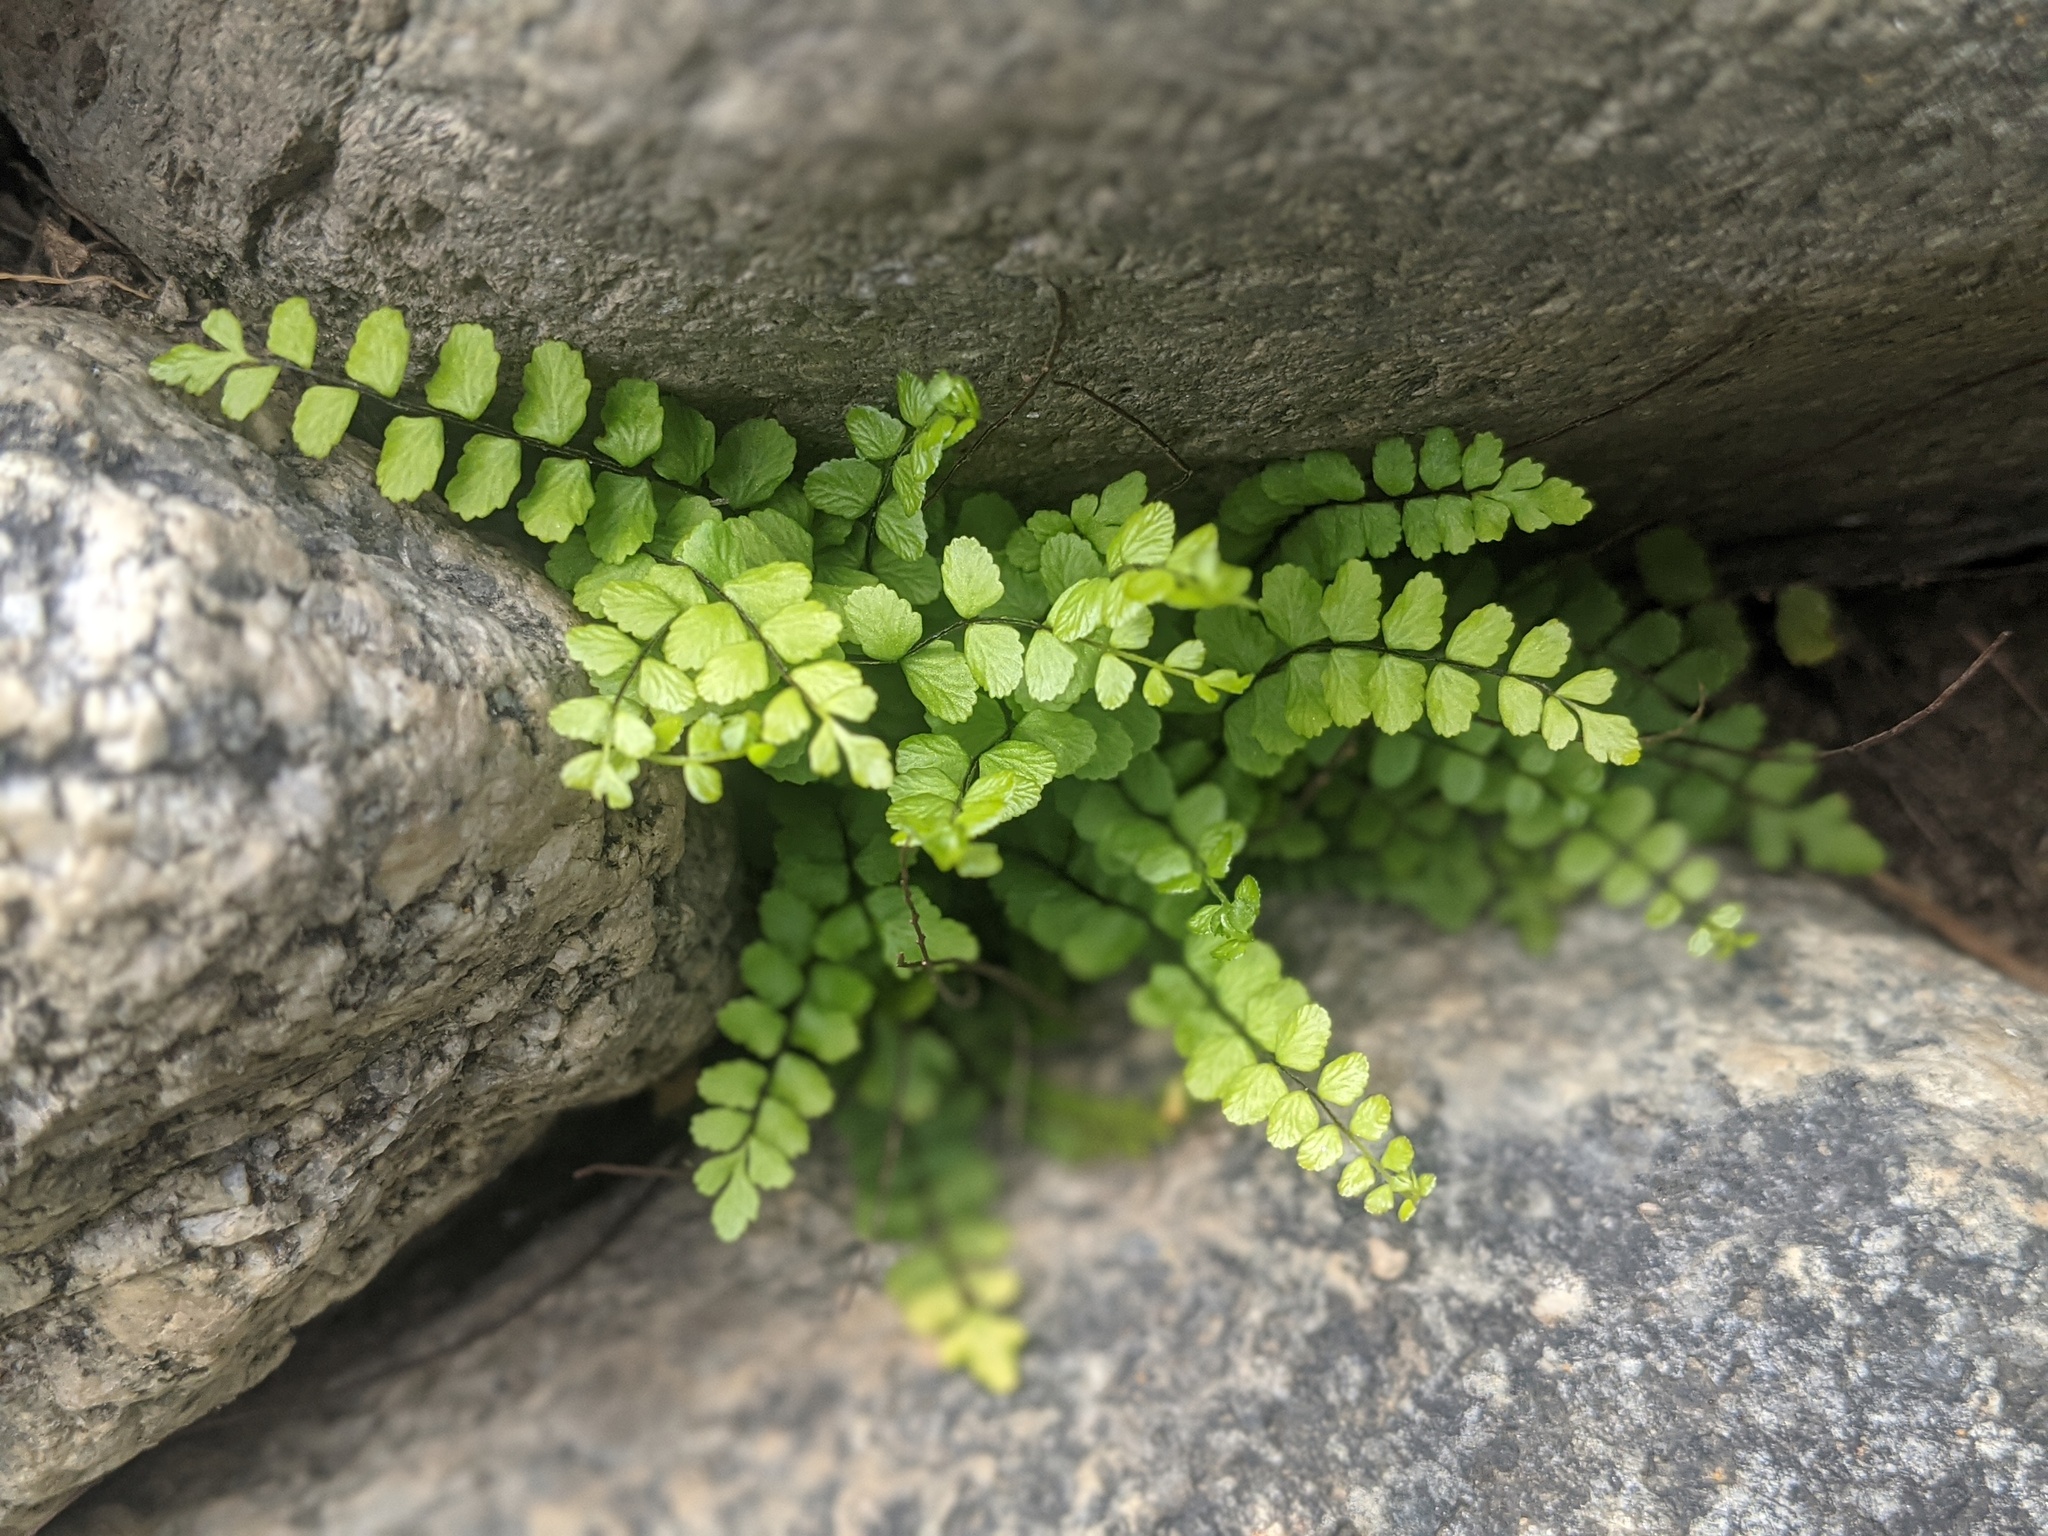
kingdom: Plantae
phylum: Tracheophyta
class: Polypodiopsida
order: Polypodiales
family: Aspleniaceae
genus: Asplenium
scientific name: Asplenium trichomanes
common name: Maidenhair spleenwort
